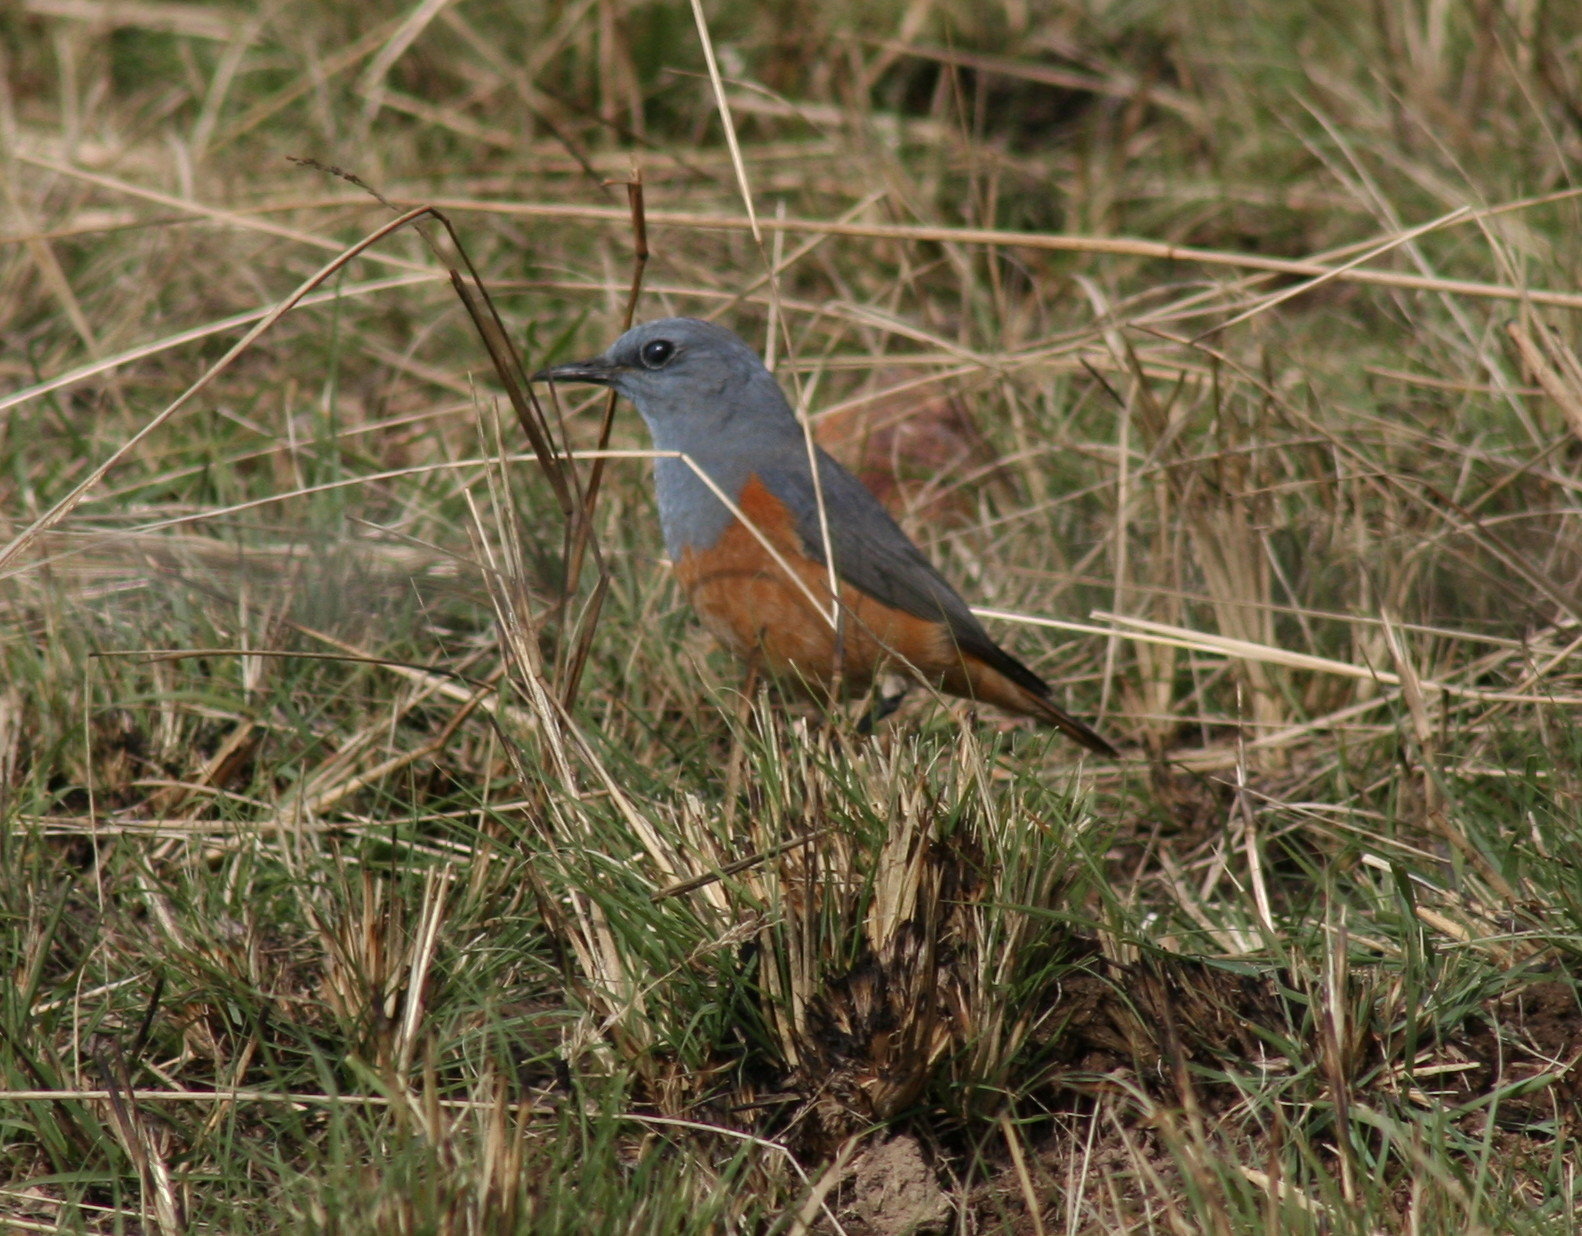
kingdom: Animalia
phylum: Chordata
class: Aves
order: Passeriformes
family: Muscicapidae
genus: Monticola
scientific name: Monticola explorator
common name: Sentinel rock thrush
